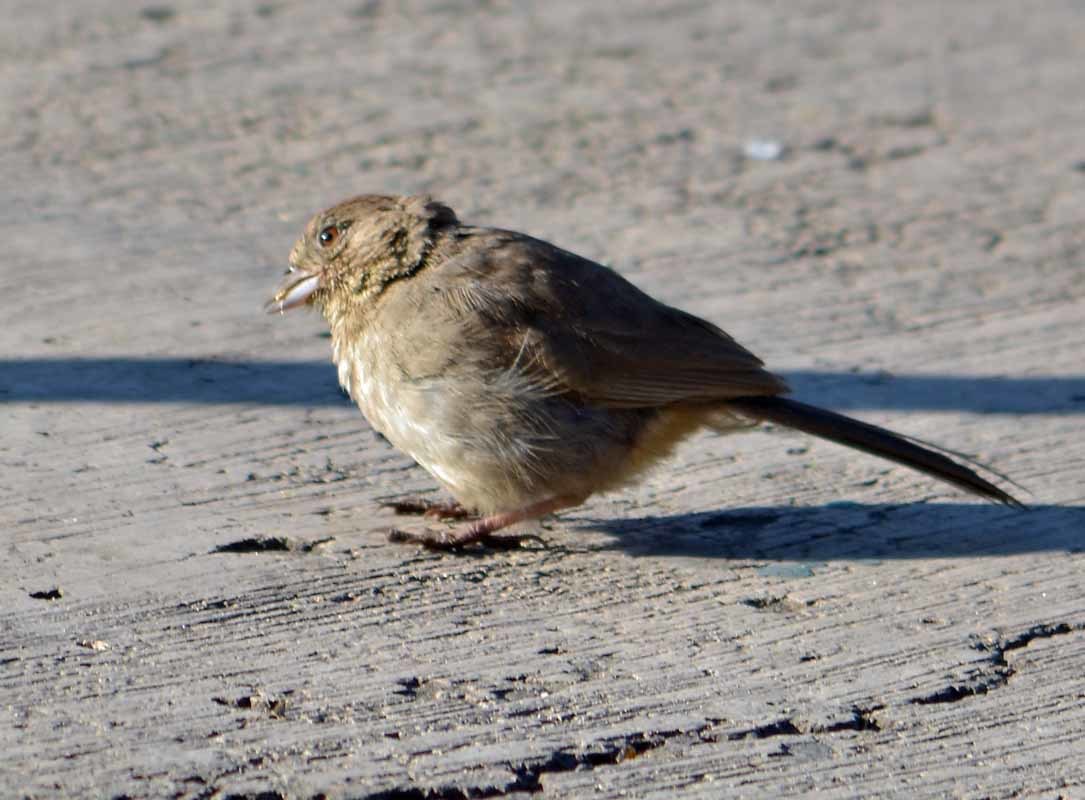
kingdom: Animalia
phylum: Chordata
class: Aves
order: Passeriformes
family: Passerellidae
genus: Melozone
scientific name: Melozone fusca
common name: Canyon towhee
